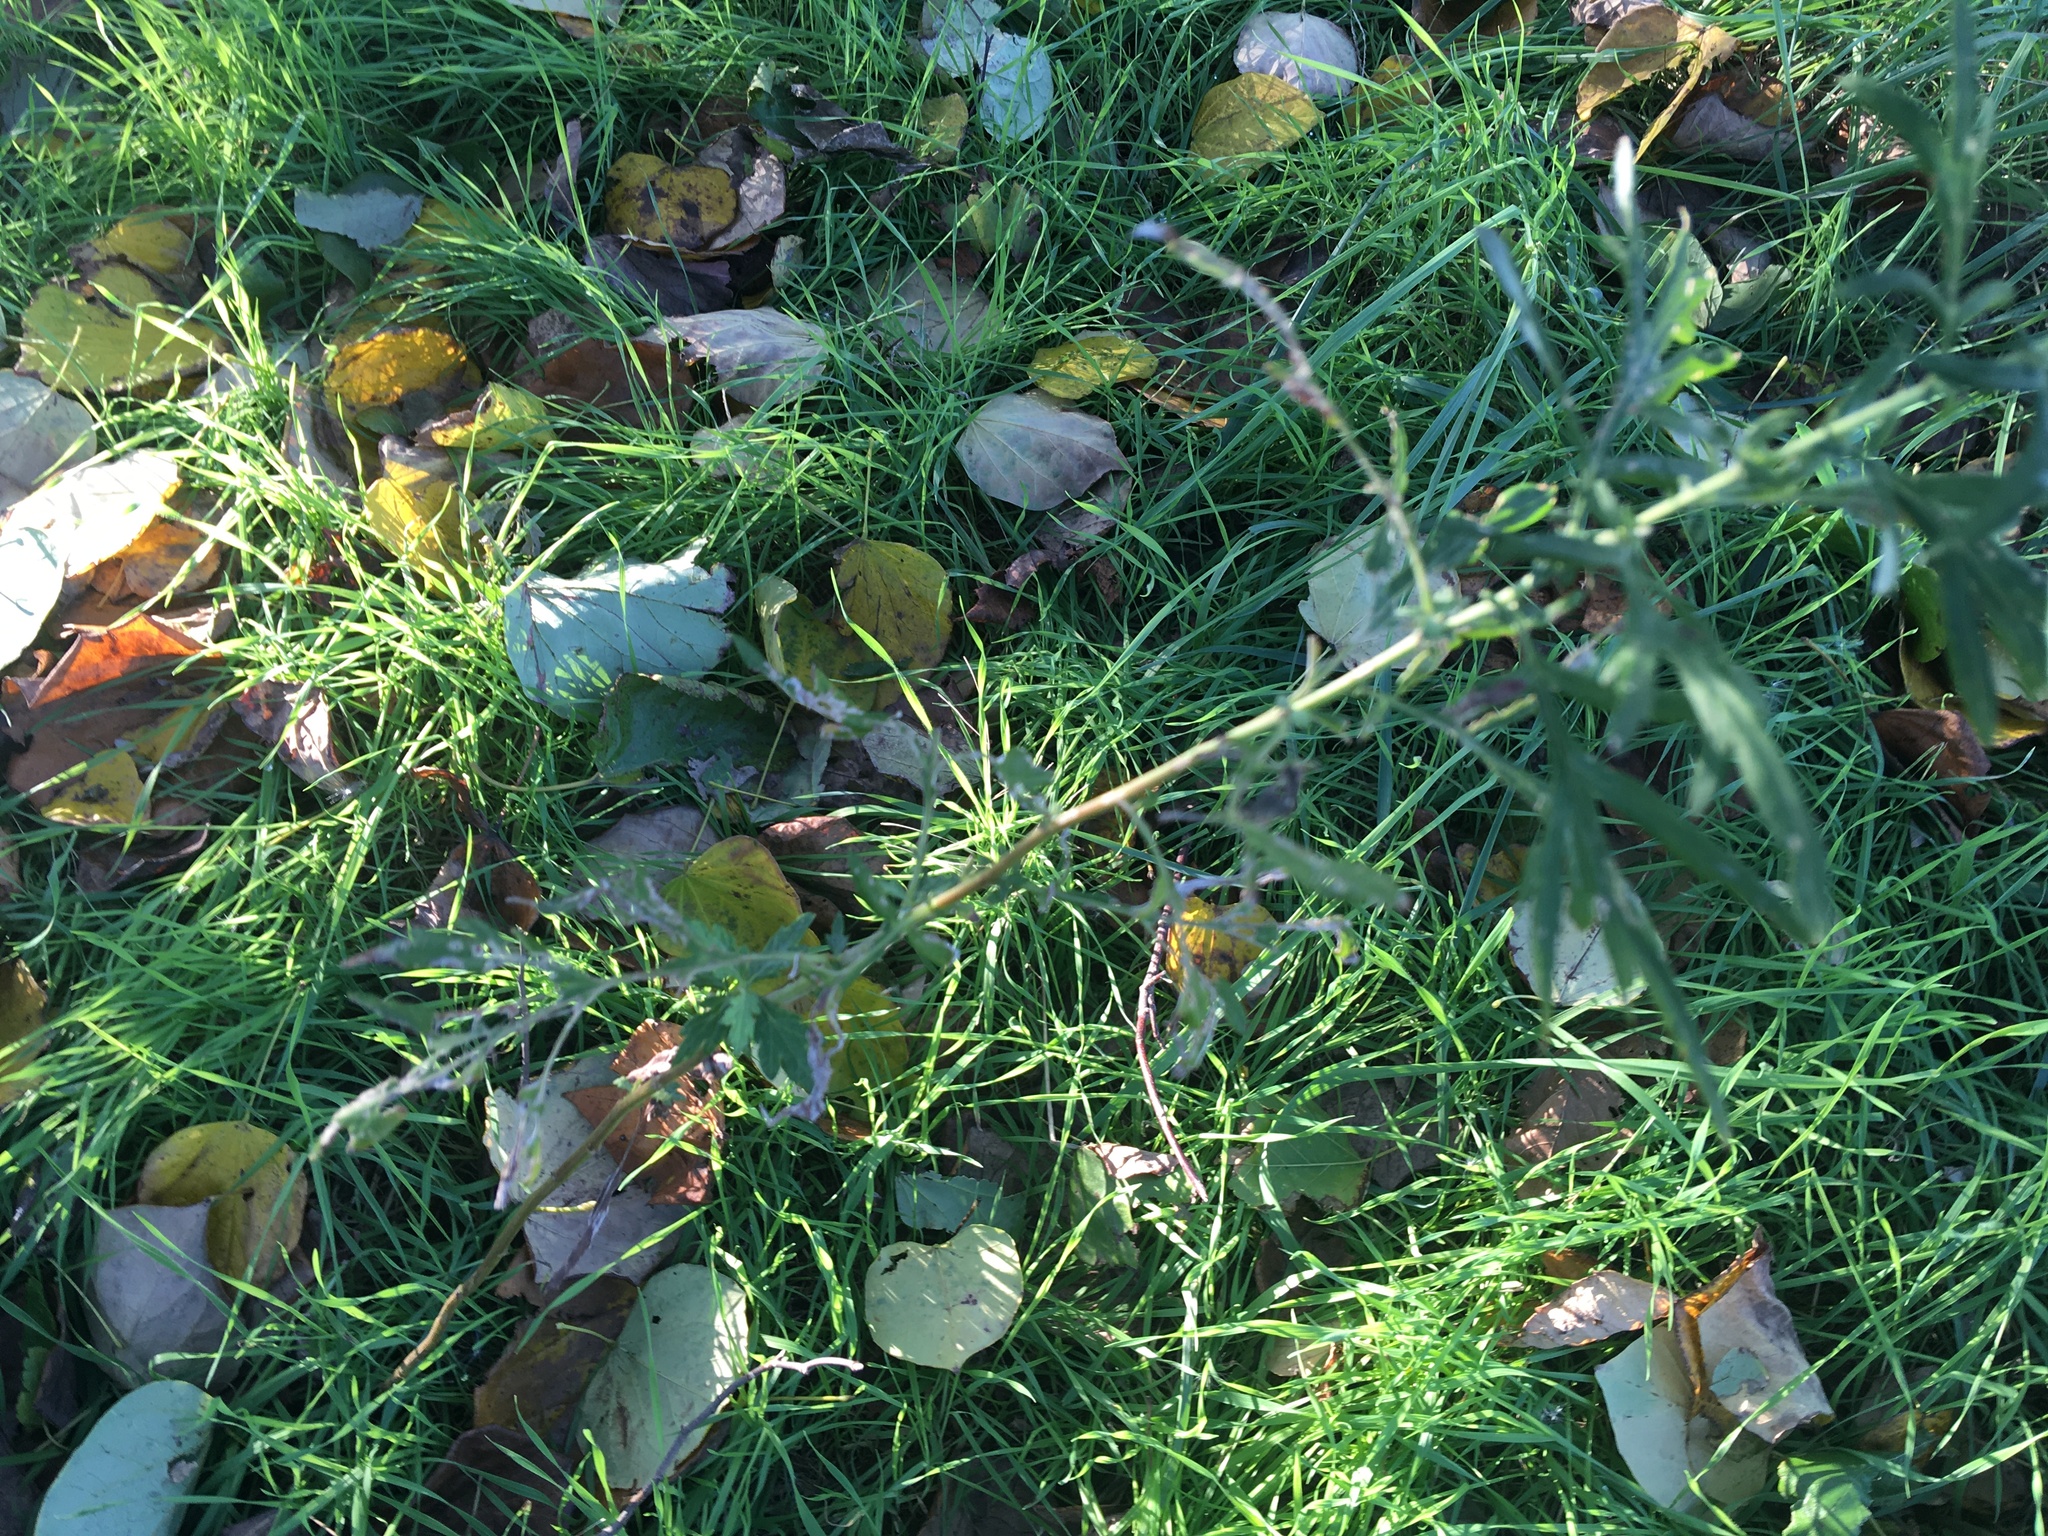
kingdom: Plantae
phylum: Tracheophyta
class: Magnoliopsida
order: Asterales
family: Asteraceae
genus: Artemisia
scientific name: Artemisia vulgaris
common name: Mugwort
